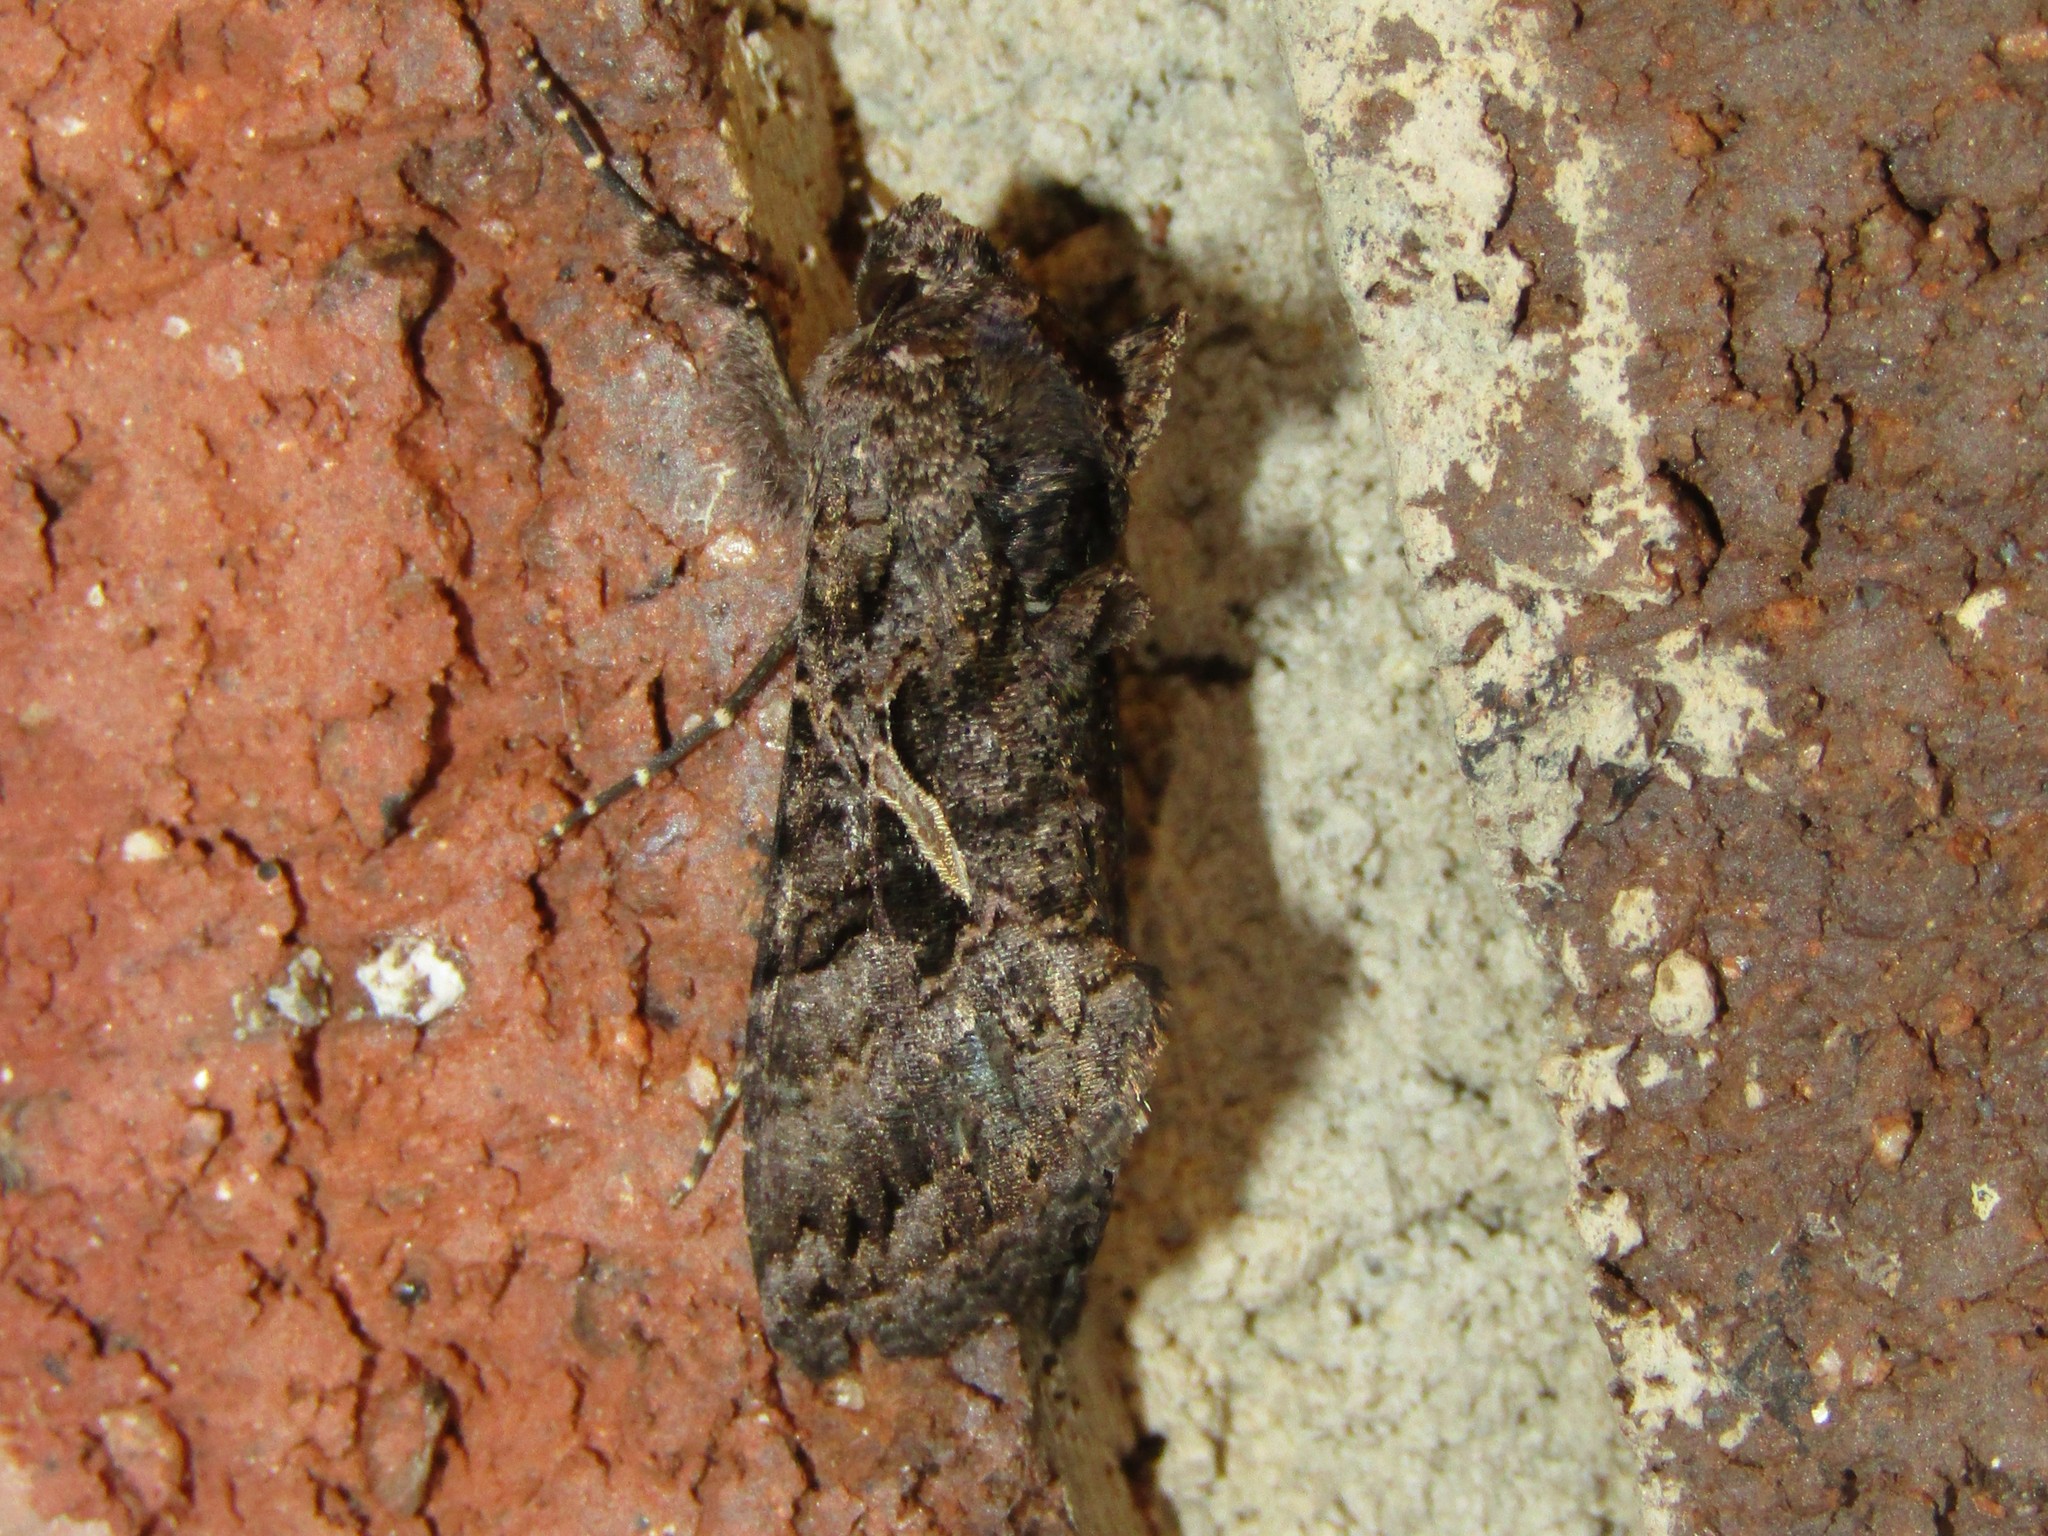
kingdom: Animalia
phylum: Arthropoda
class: Insecta
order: Lepidoptera
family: Noctuidae
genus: Ctenoplusia
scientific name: Ctenoplusia oxygramma
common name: Sharp-stigma looper moth
